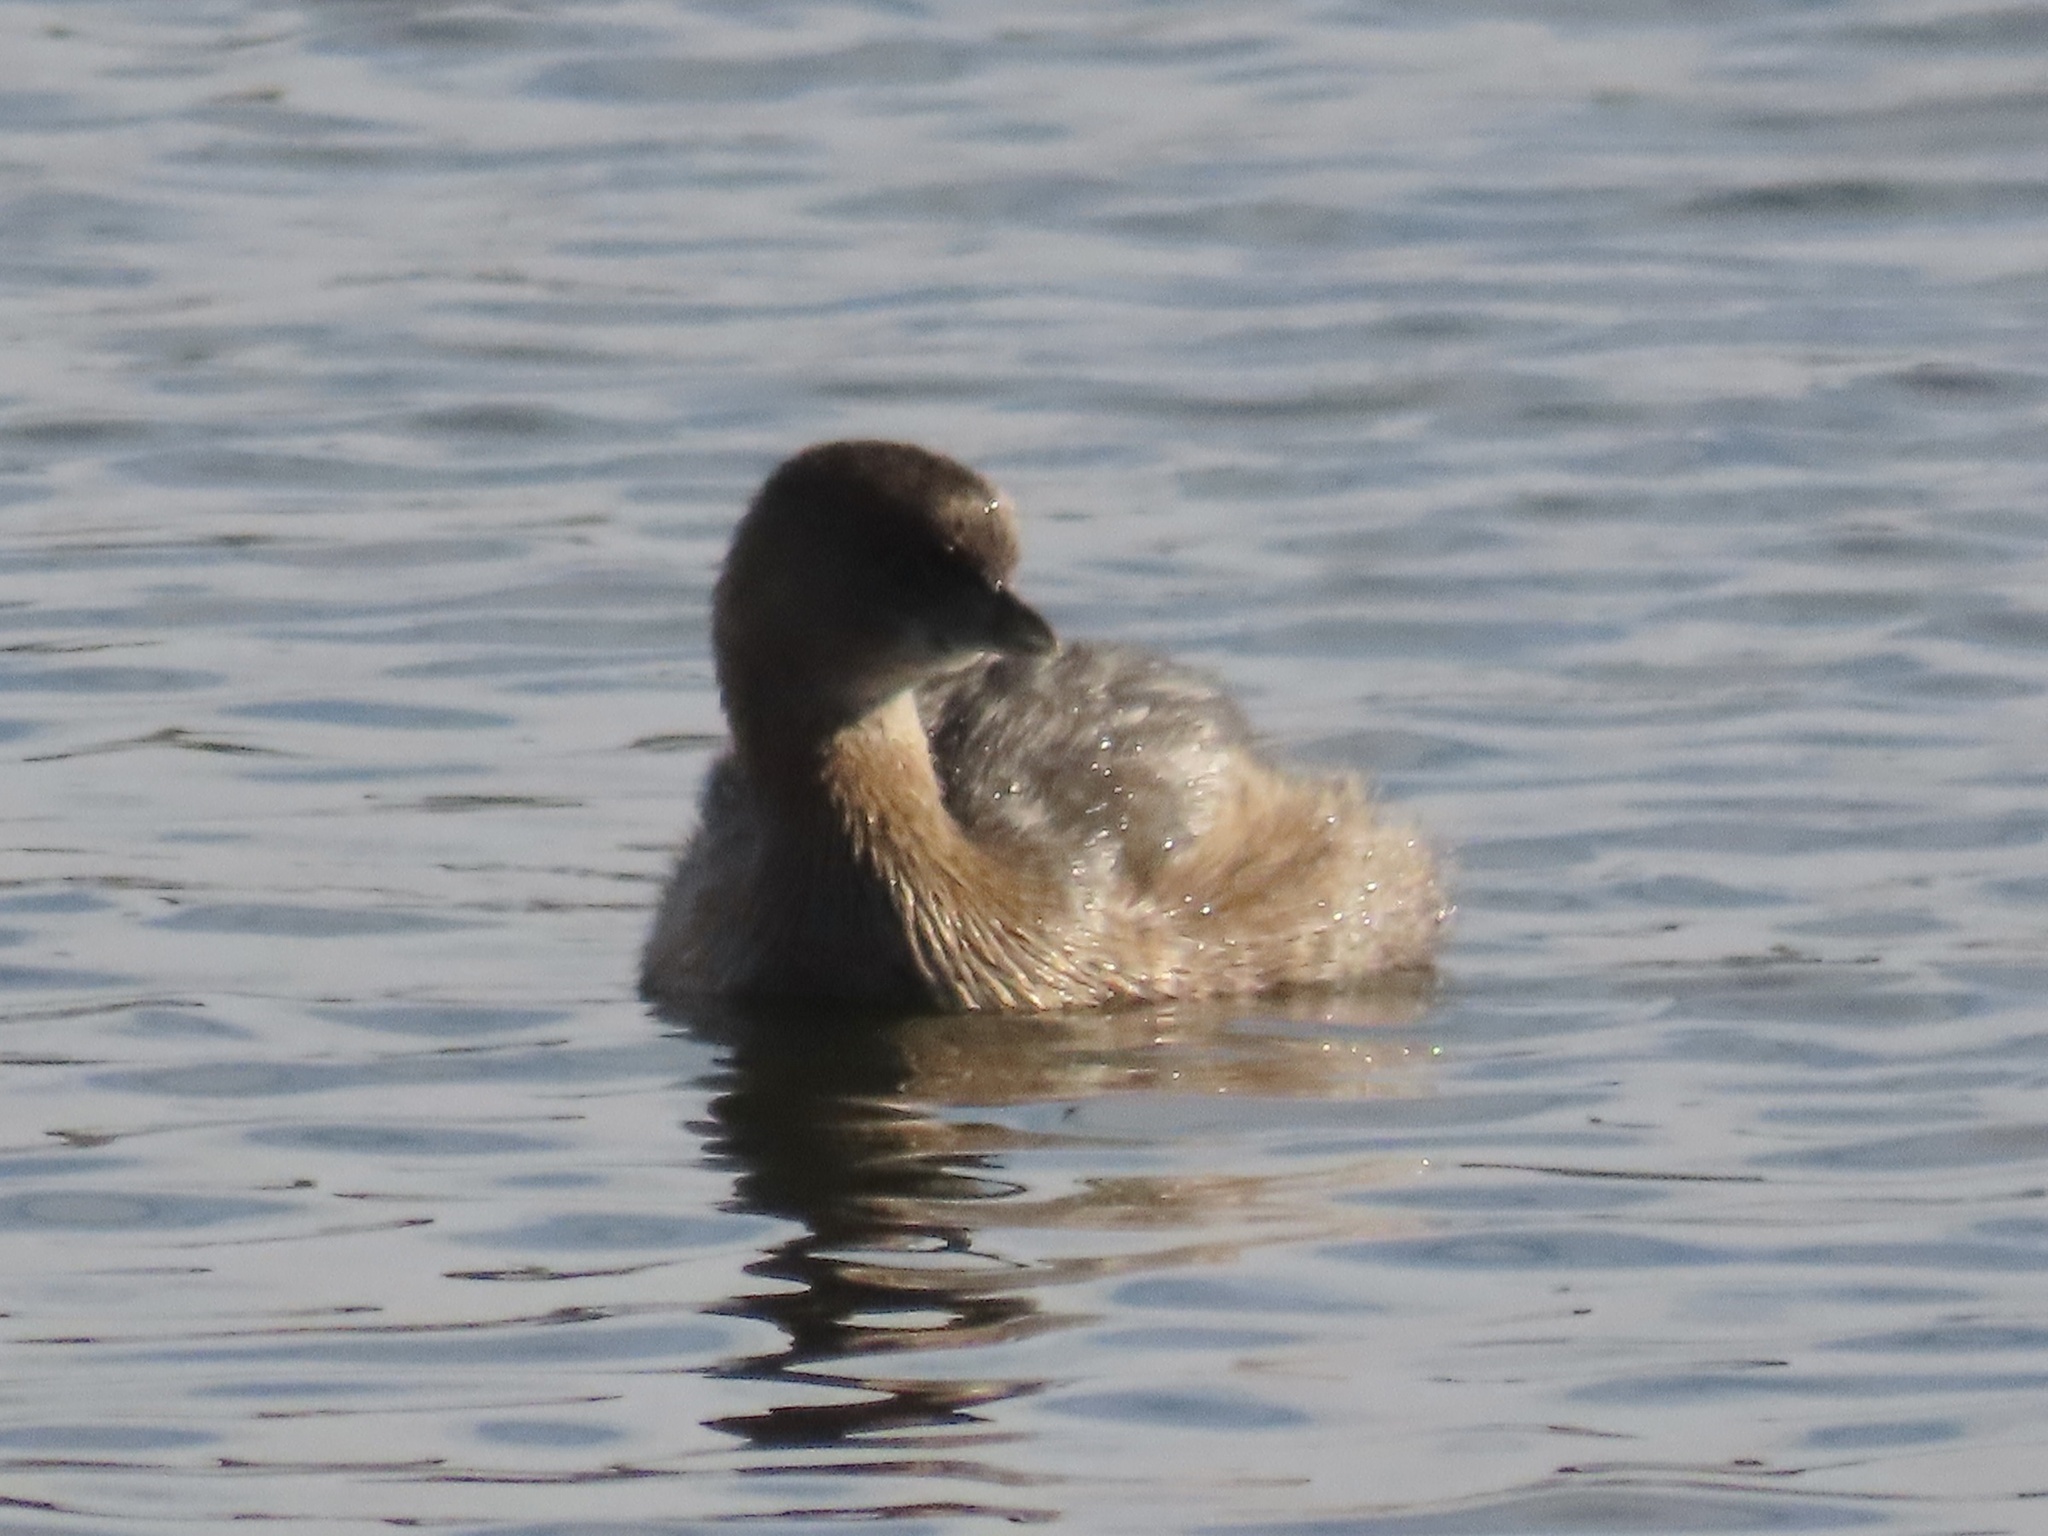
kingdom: Animalia
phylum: Chordata
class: Aves
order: Podicipediformes
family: Podicipedidae
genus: Podilymbus
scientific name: Podilymbus podiceps
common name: Pied-billed grebe
